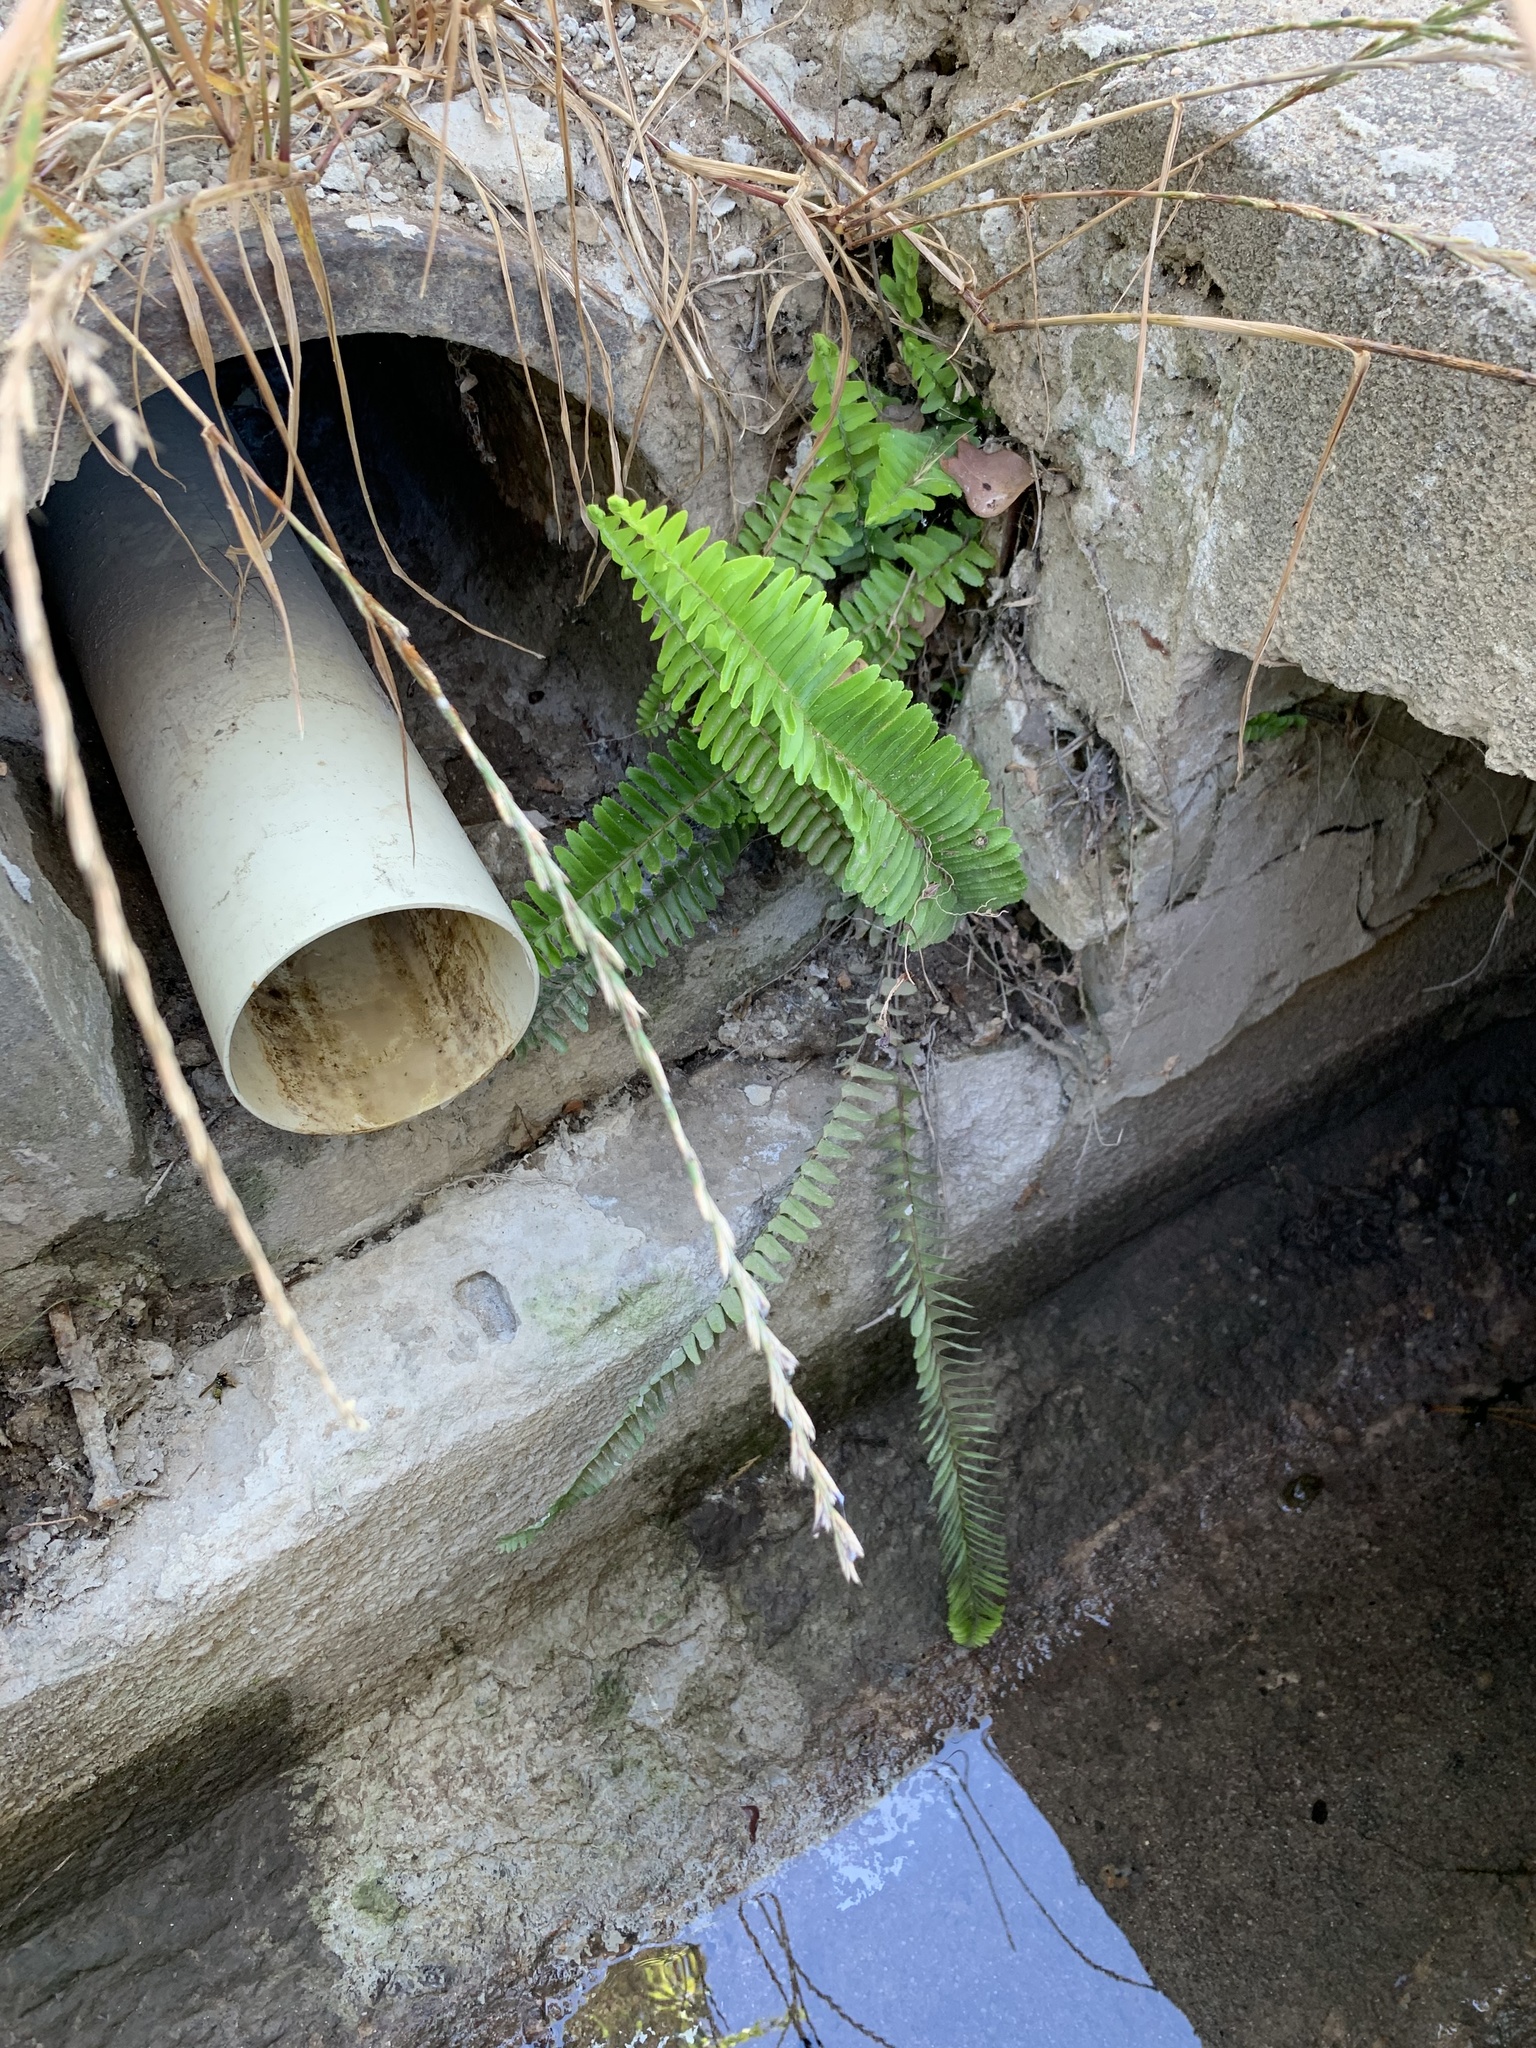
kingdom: Plantae
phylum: Tracheophyta
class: Polypodiopsida
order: Polypodiales
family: Nephrolepidaceae
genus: Nephrolepis
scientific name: Nephrolepis cordifolia
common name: Narrow swordfern
